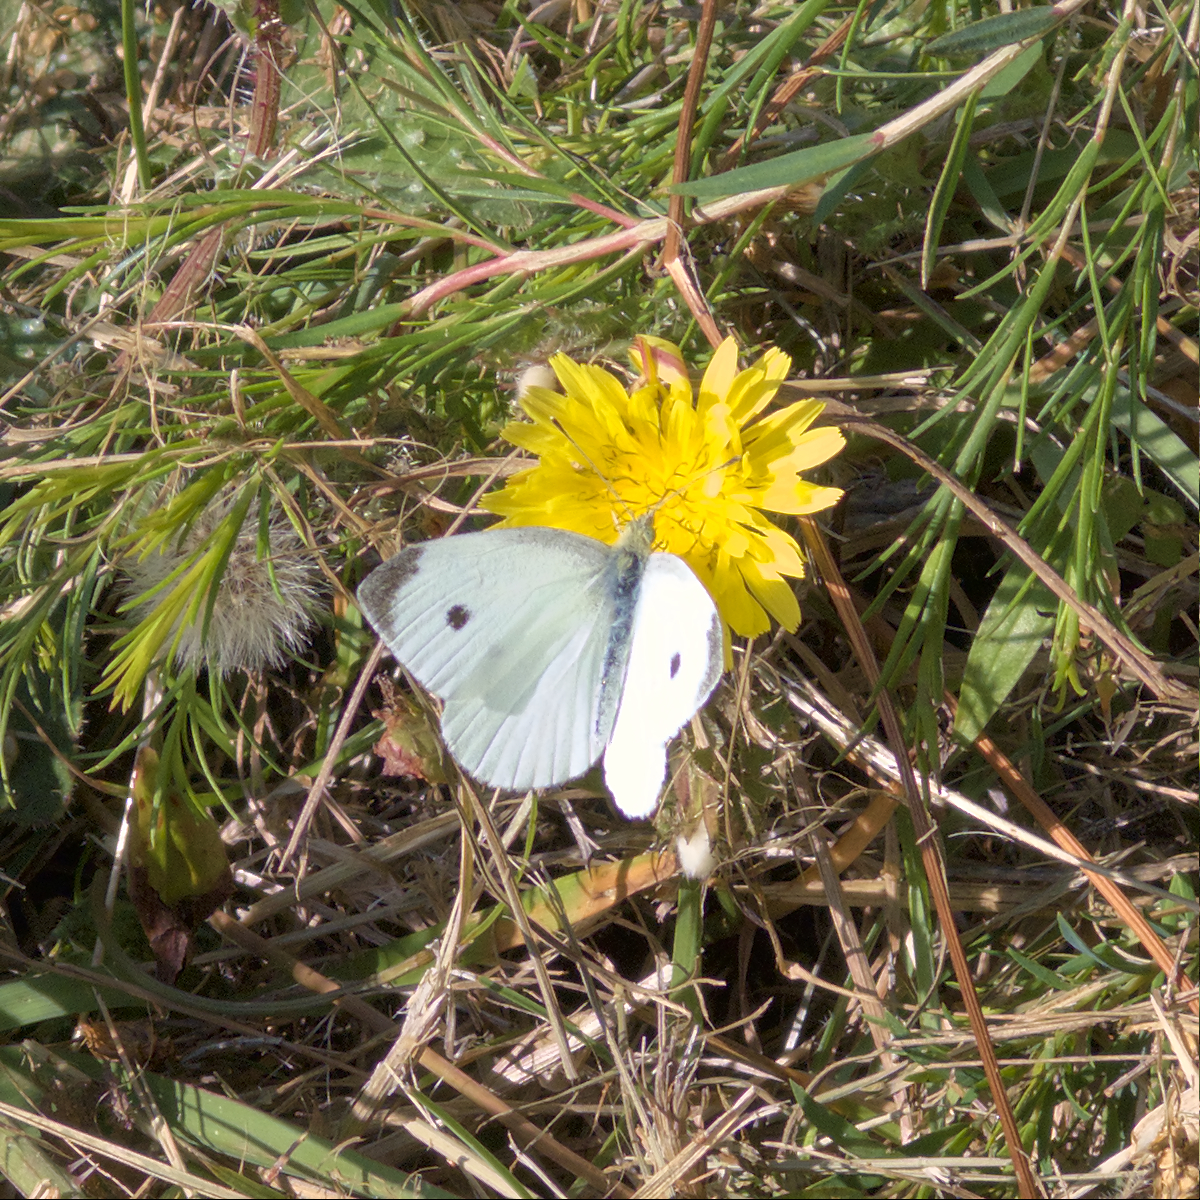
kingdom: Animalia
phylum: Arthropoda
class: Insecta
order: Lepidoptera
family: Pieridae
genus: Pieris
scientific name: Pieris rapae
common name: Small white
